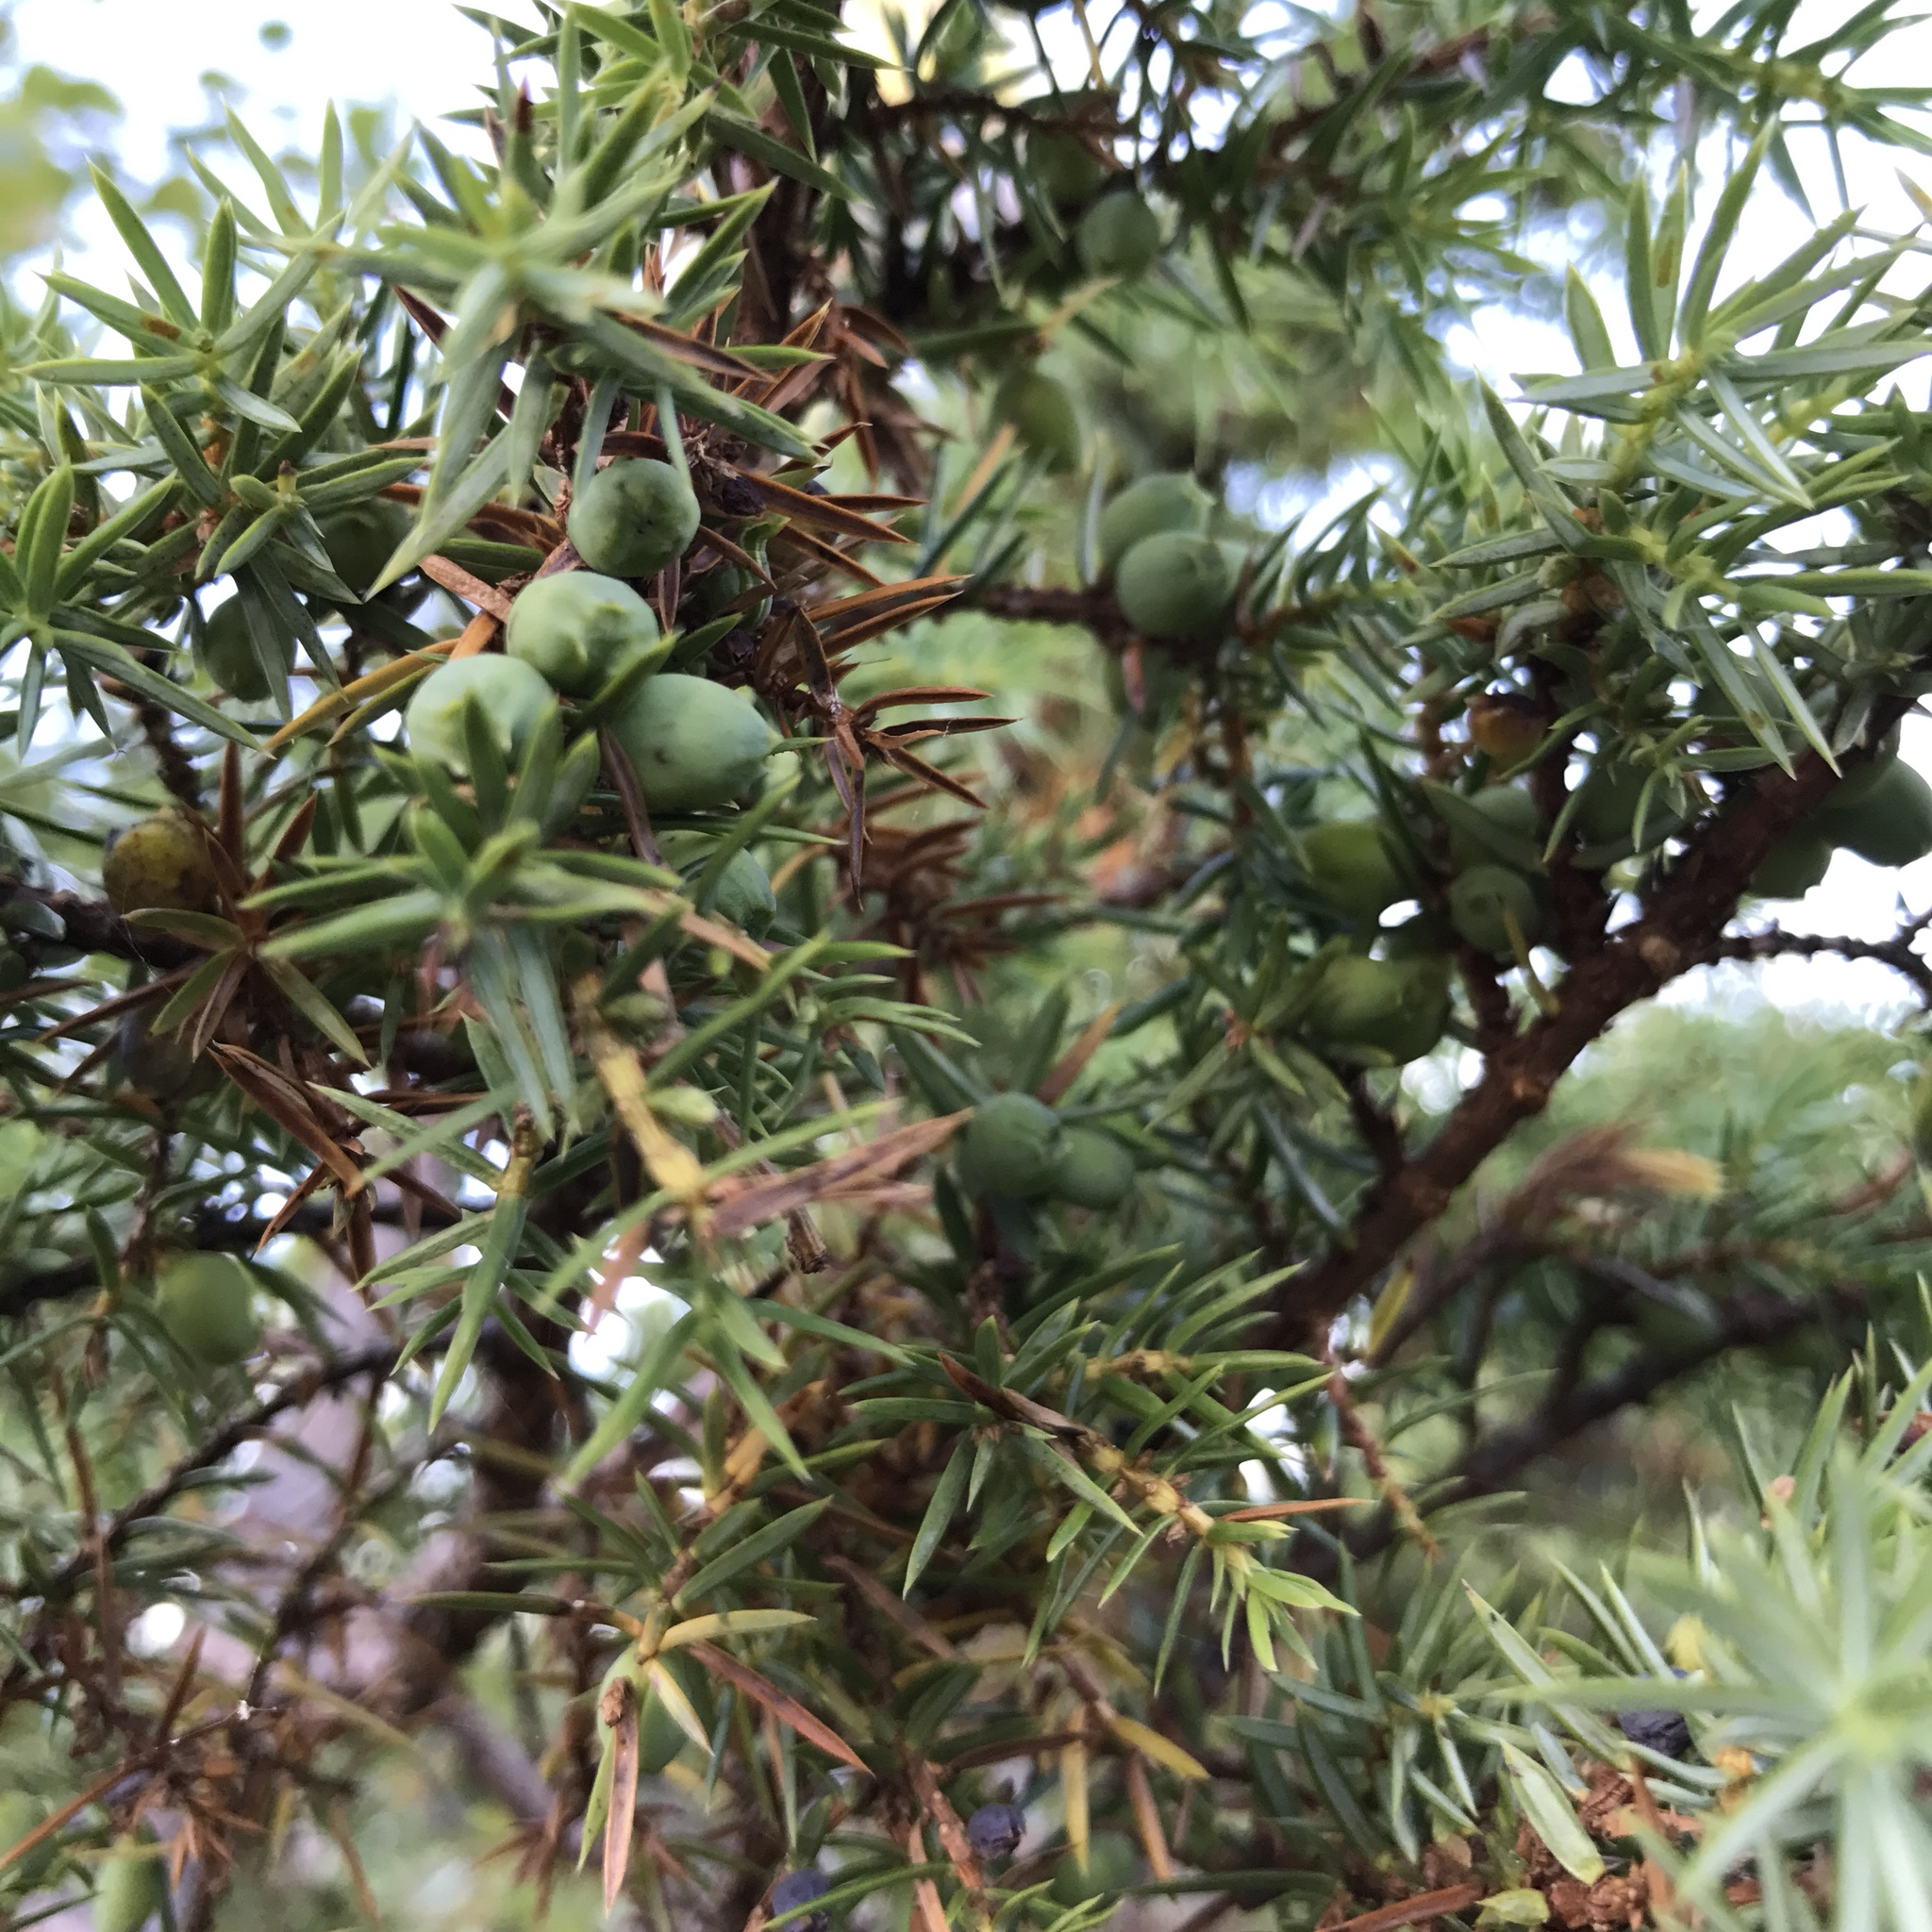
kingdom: Plantae
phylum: Tracheophyta
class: Pinopsida
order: Pinales
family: Cupressaceae
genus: Juniperus
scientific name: Juniperus communis
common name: Common juniper
